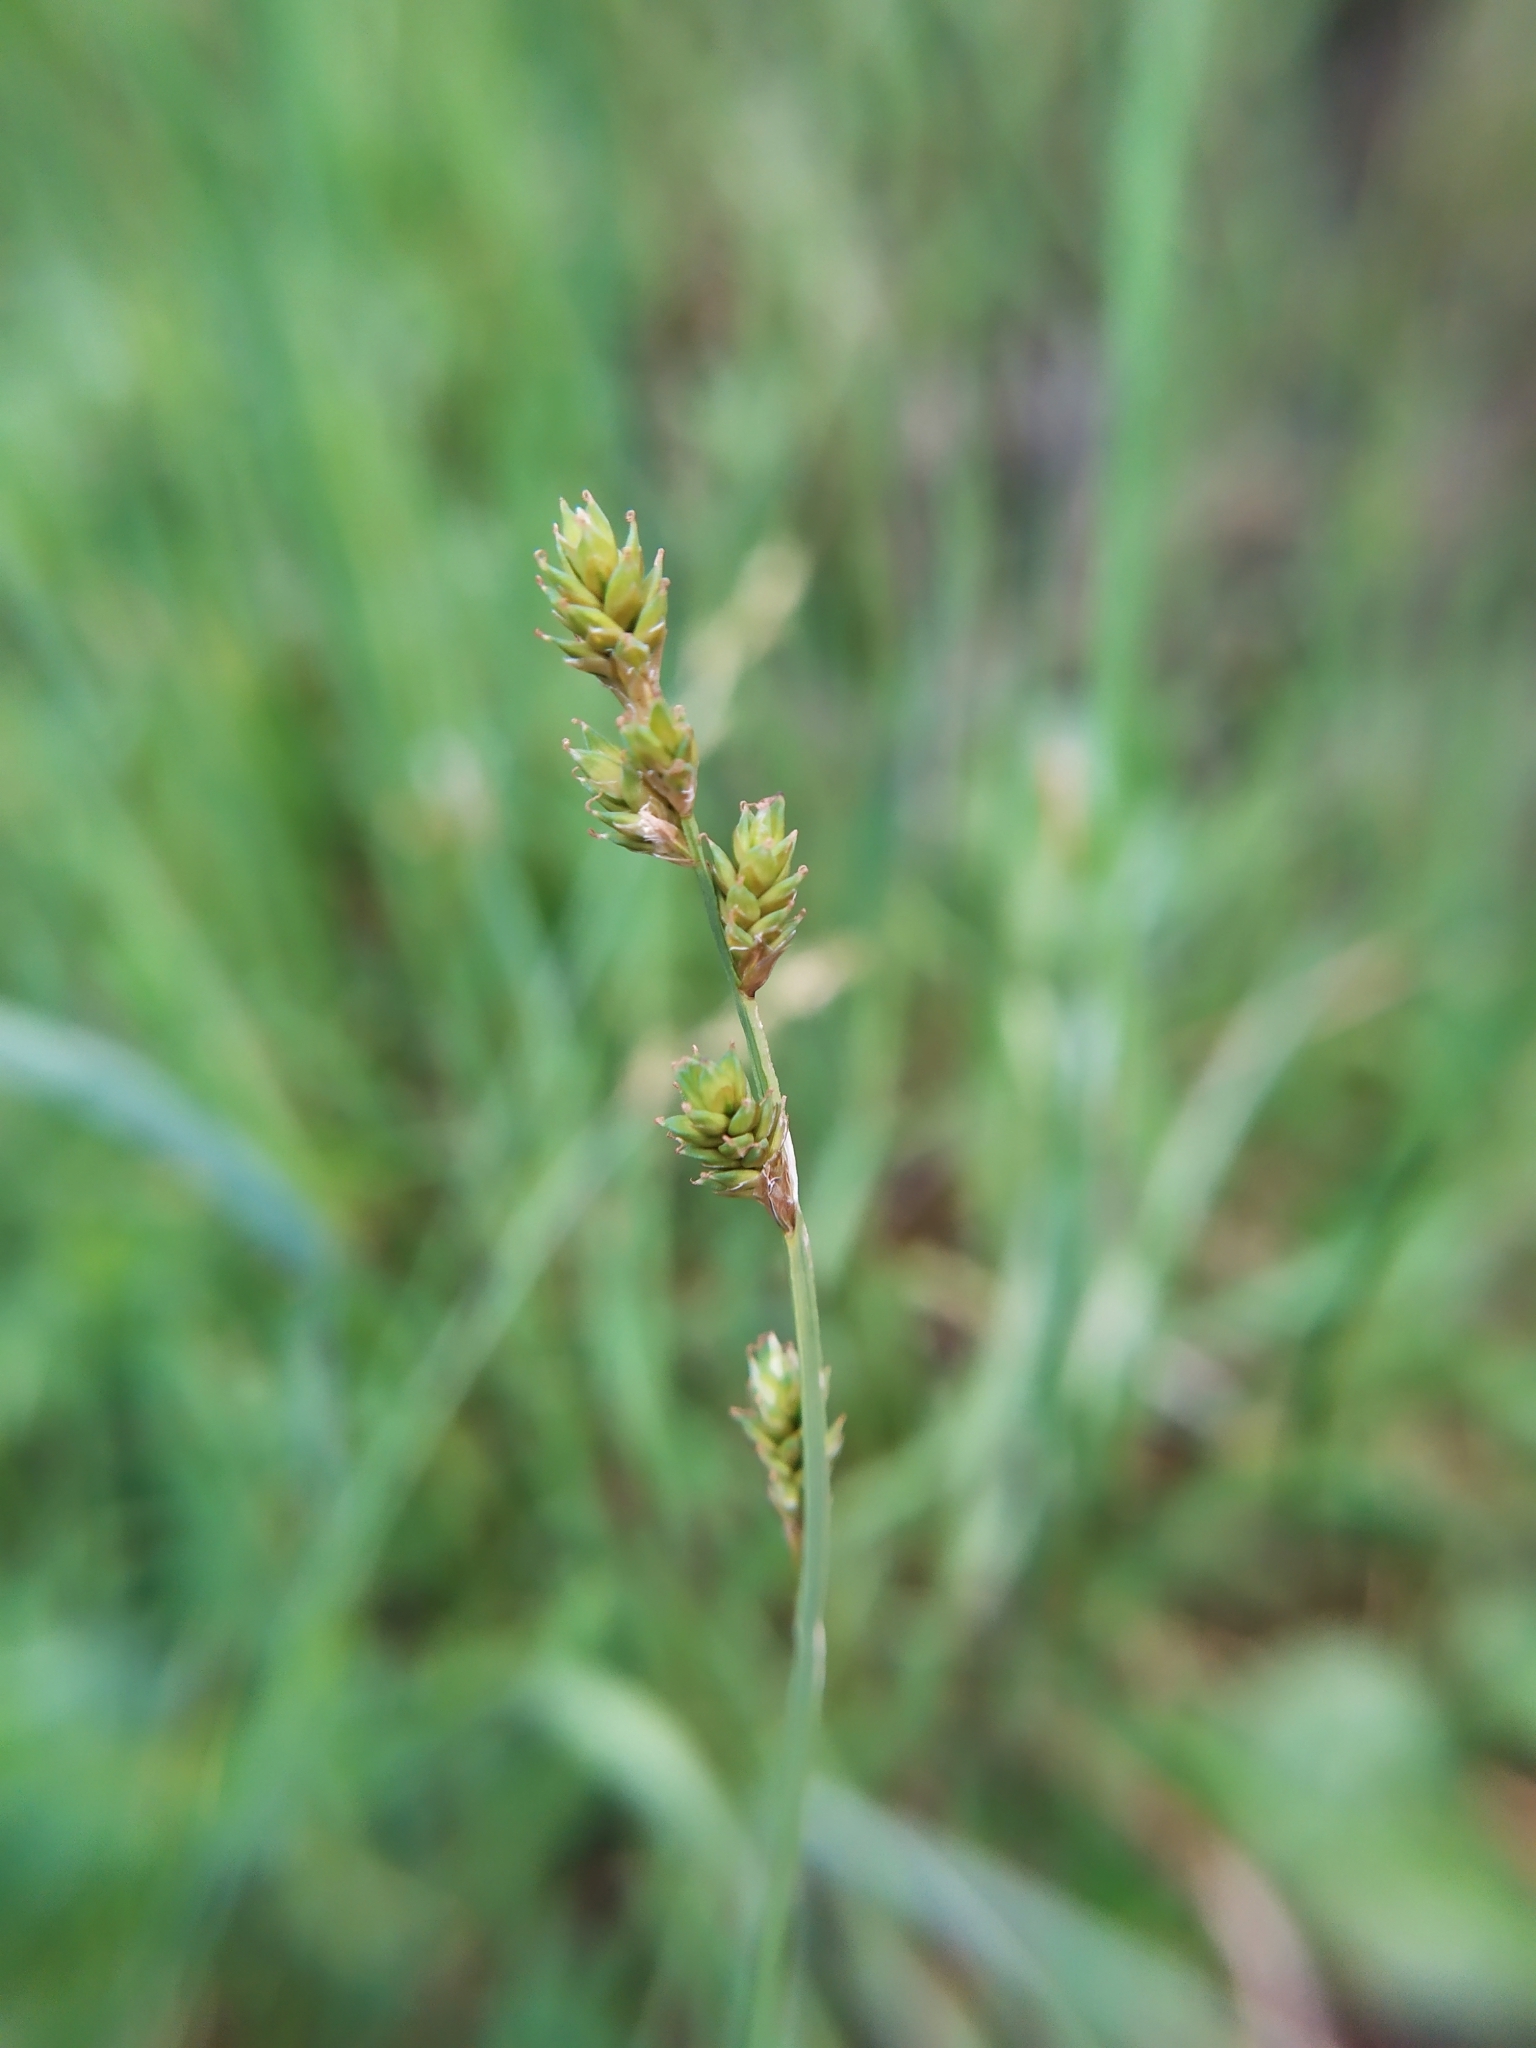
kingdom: Plantae
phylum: Tracheophyta
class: Liliopsida
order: Poales
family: Cyperaceae
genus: Carex
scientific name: Carex canescens
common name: White sedge
